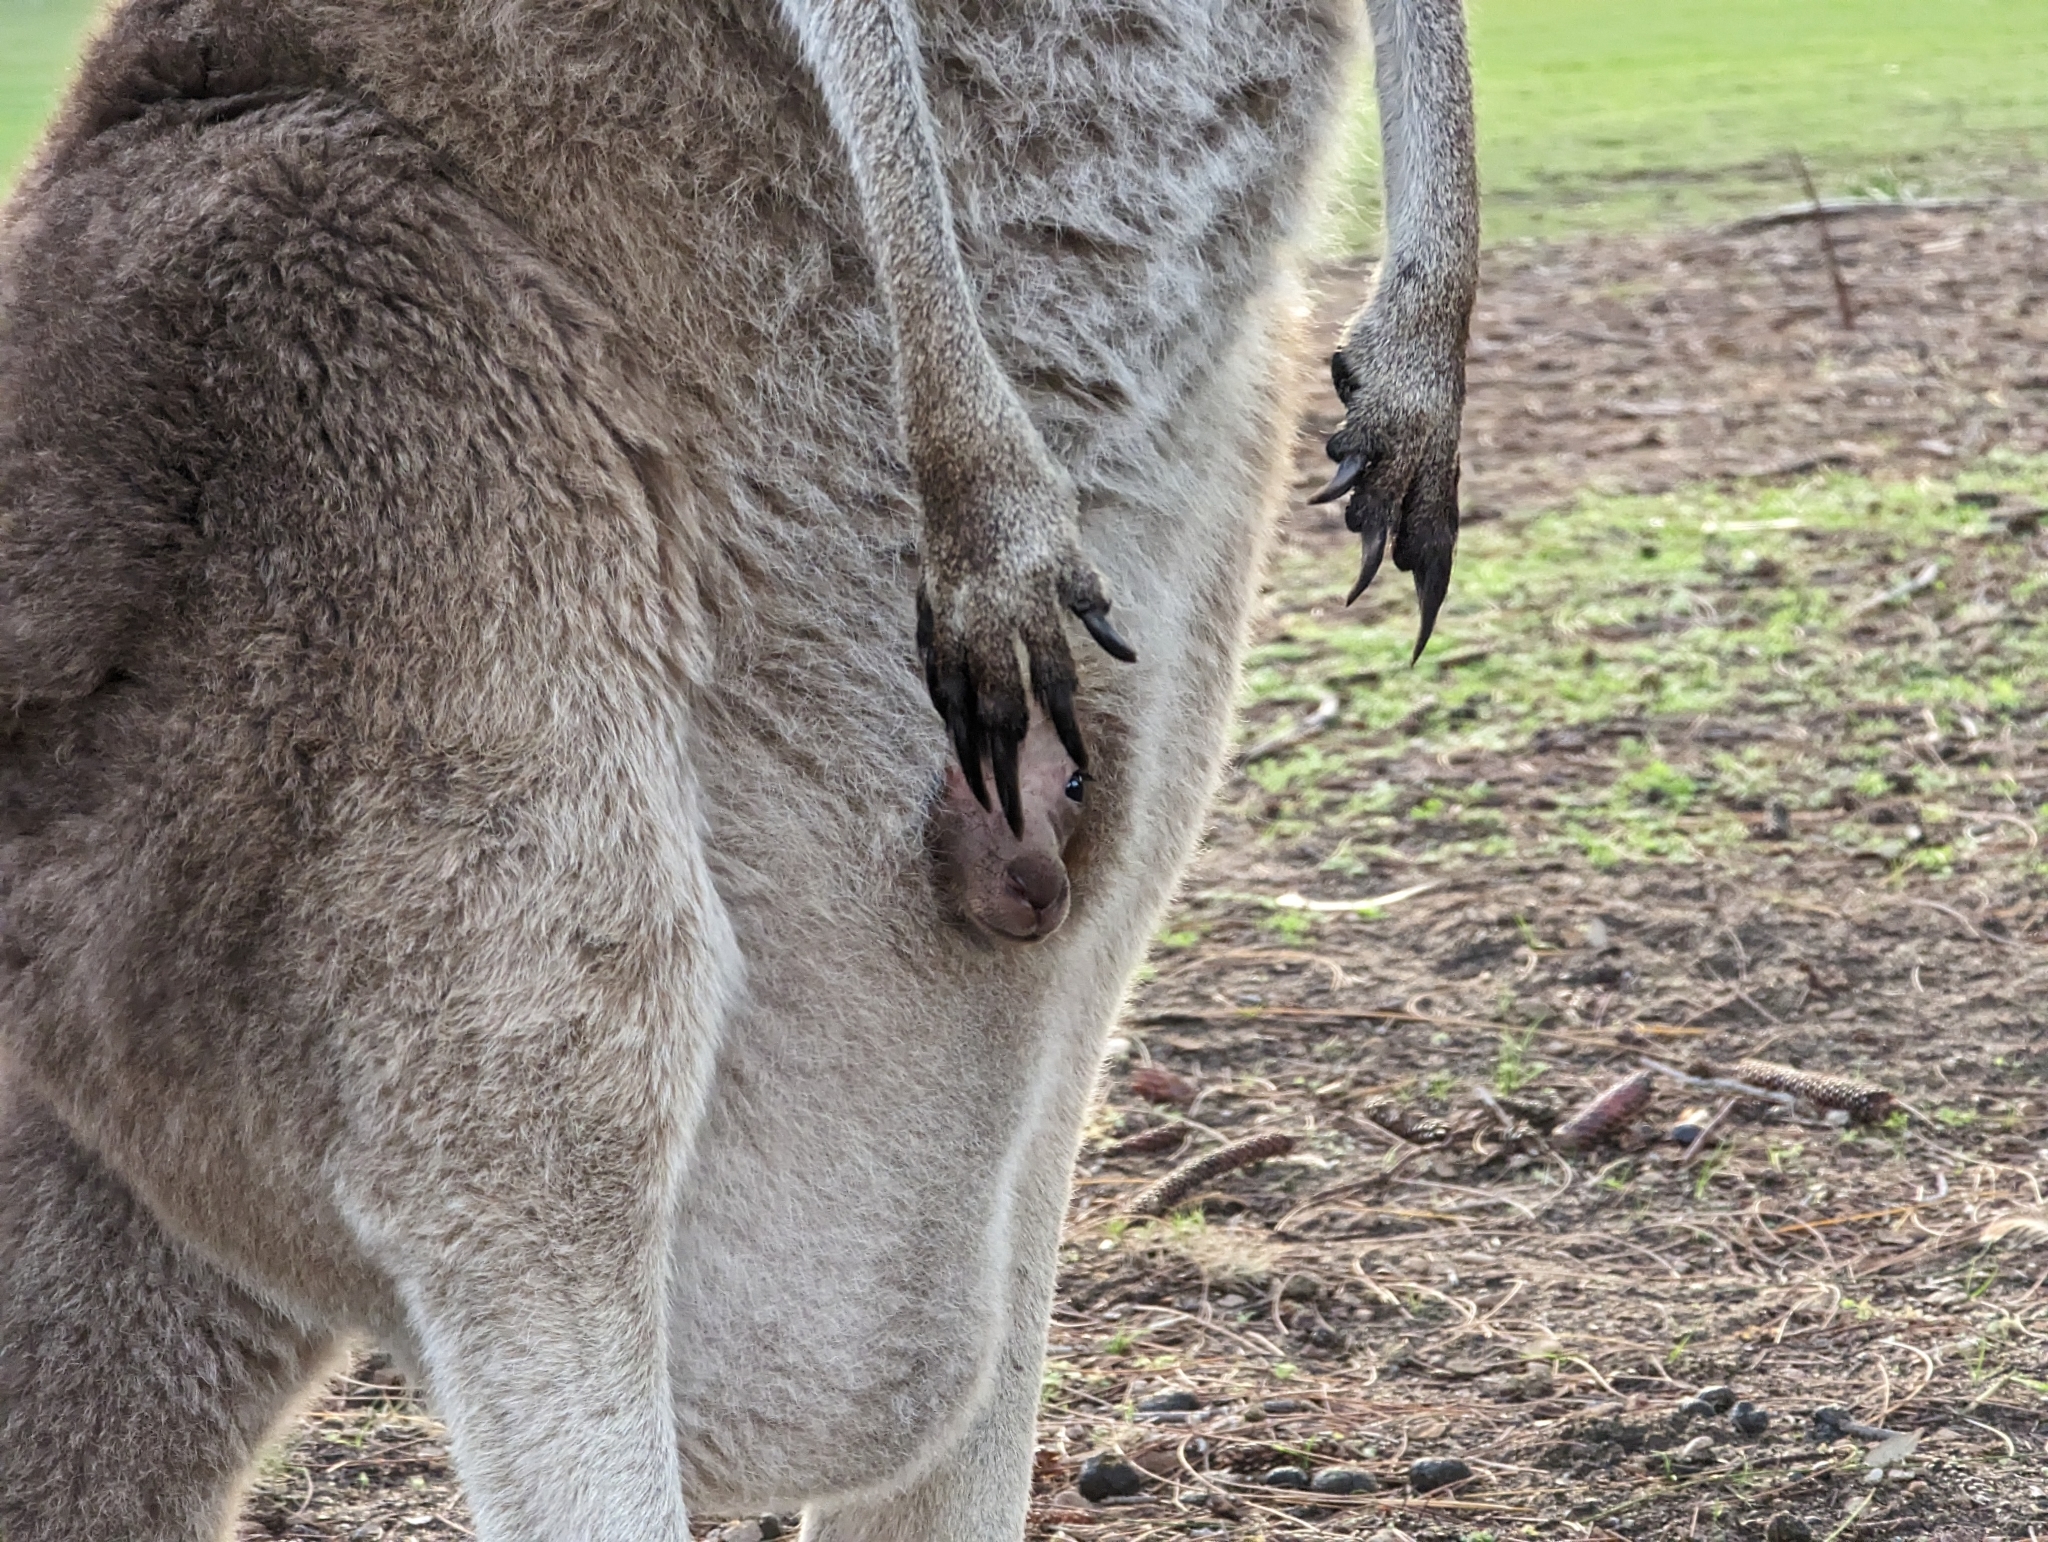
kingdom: Animalia
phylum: Chordata
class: Mammalia
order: Diprotodontia
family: Macropodidae
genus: Macropus
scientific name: Macropus fuliginosus
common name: Western grey kangaroo
